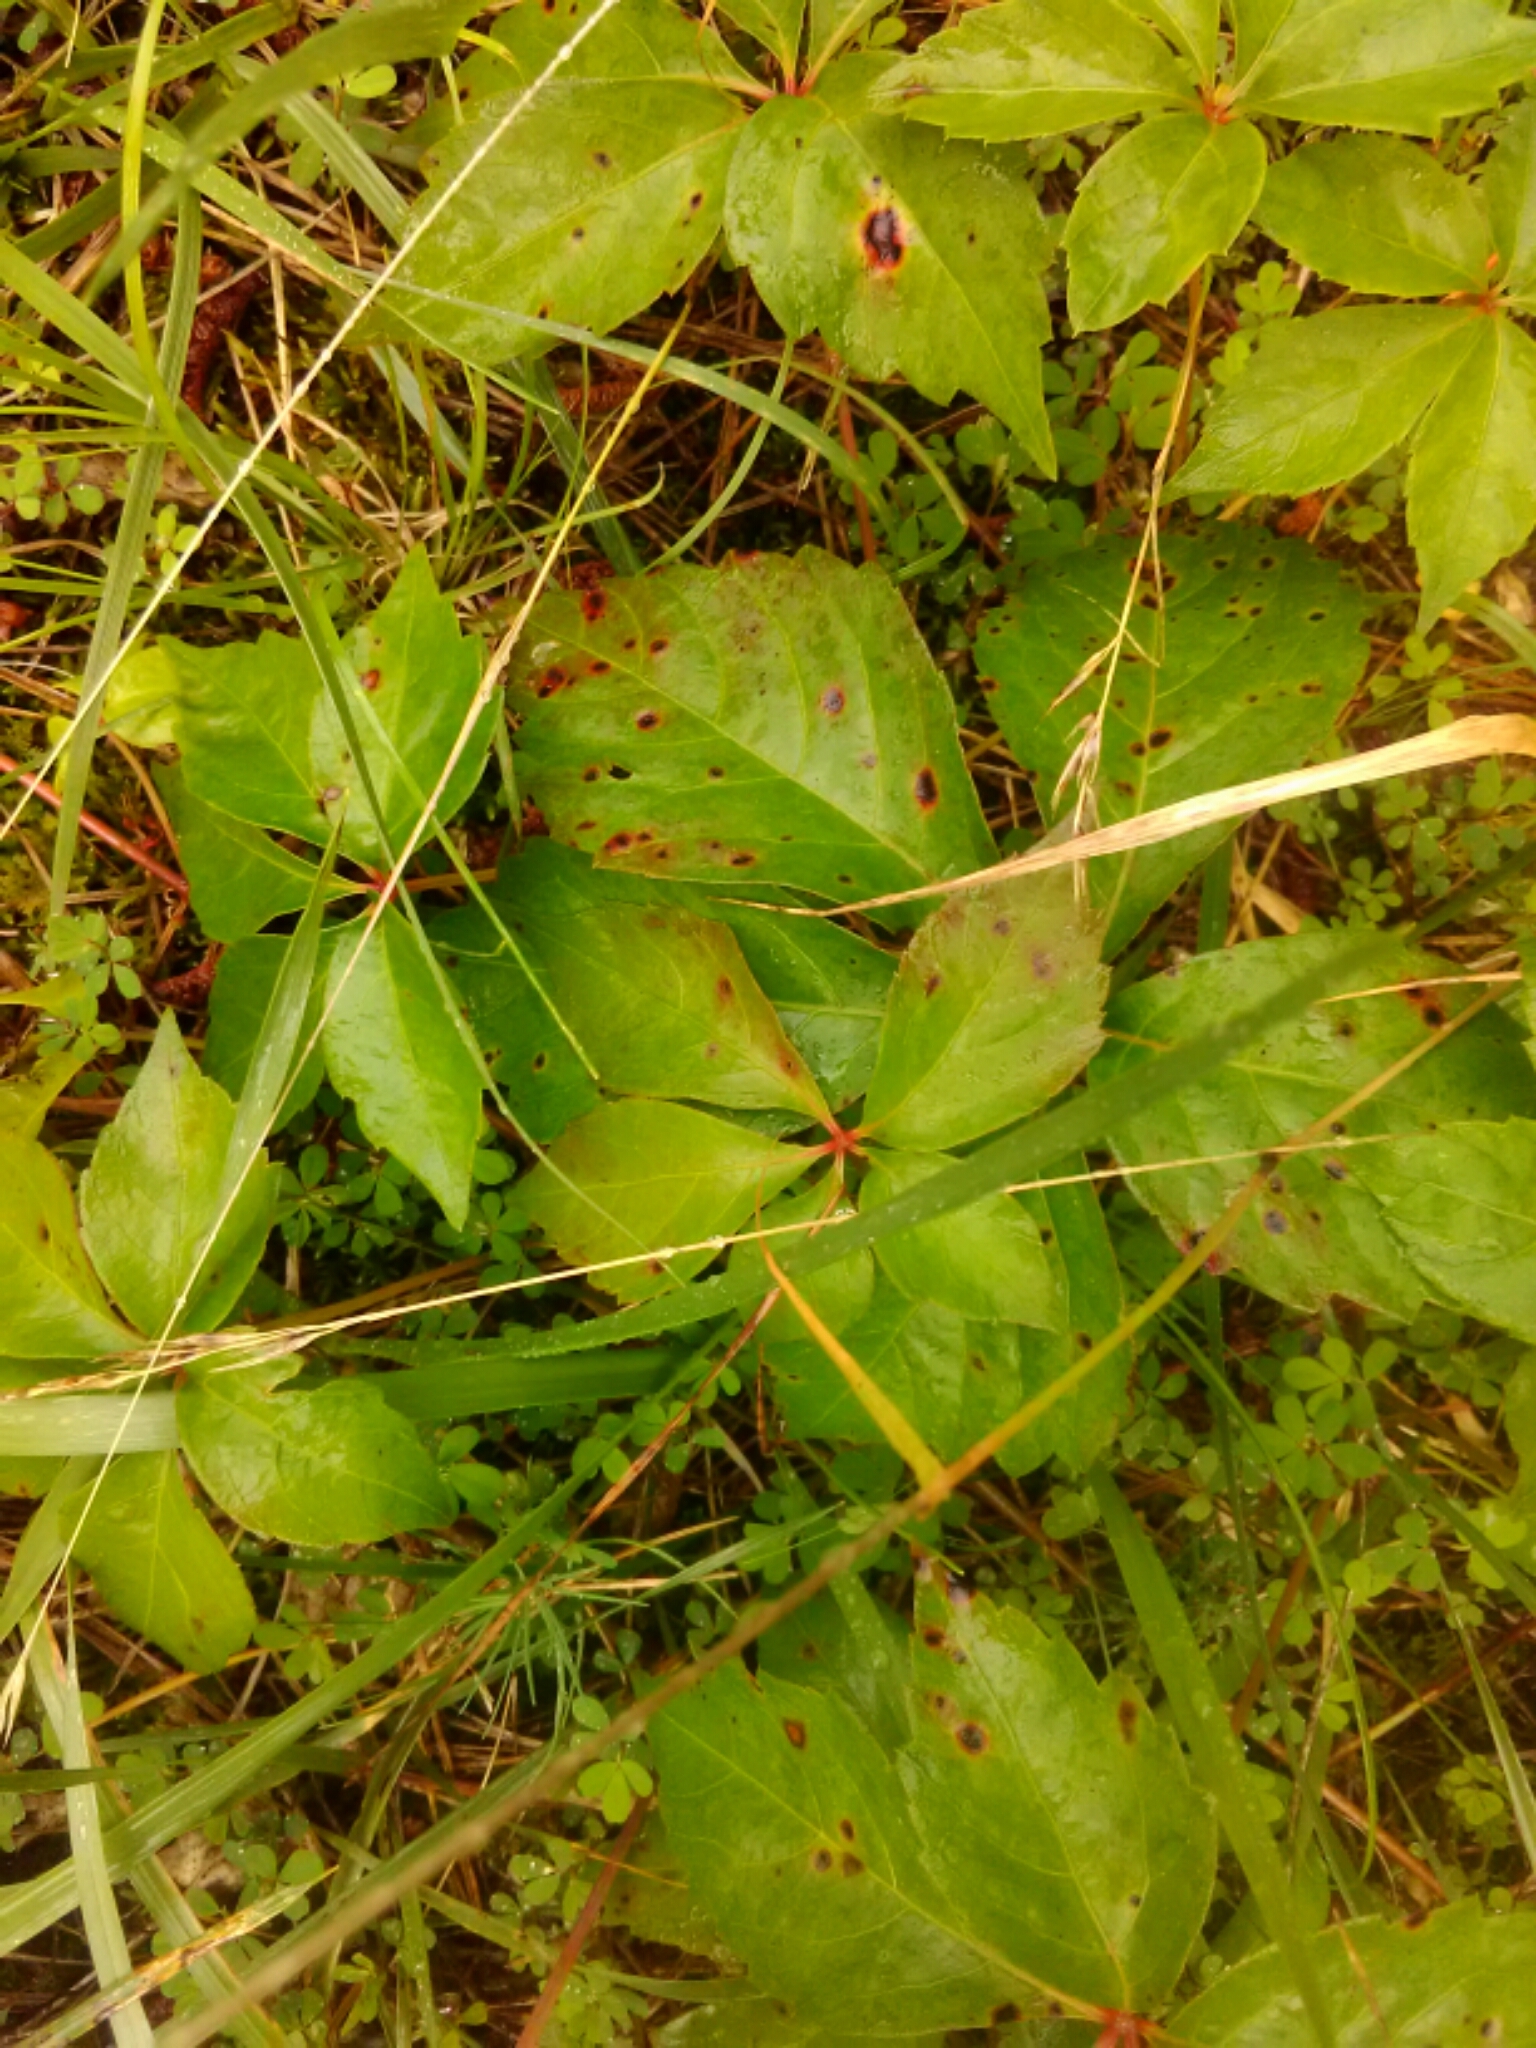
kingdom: Plantae
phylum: Tracheophyta
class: Magnoliopsida
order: Vitales
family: Vitaceae
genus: Parthenocissus
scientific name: Parthenocissus quinquefolia
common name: Virginia-creeper
